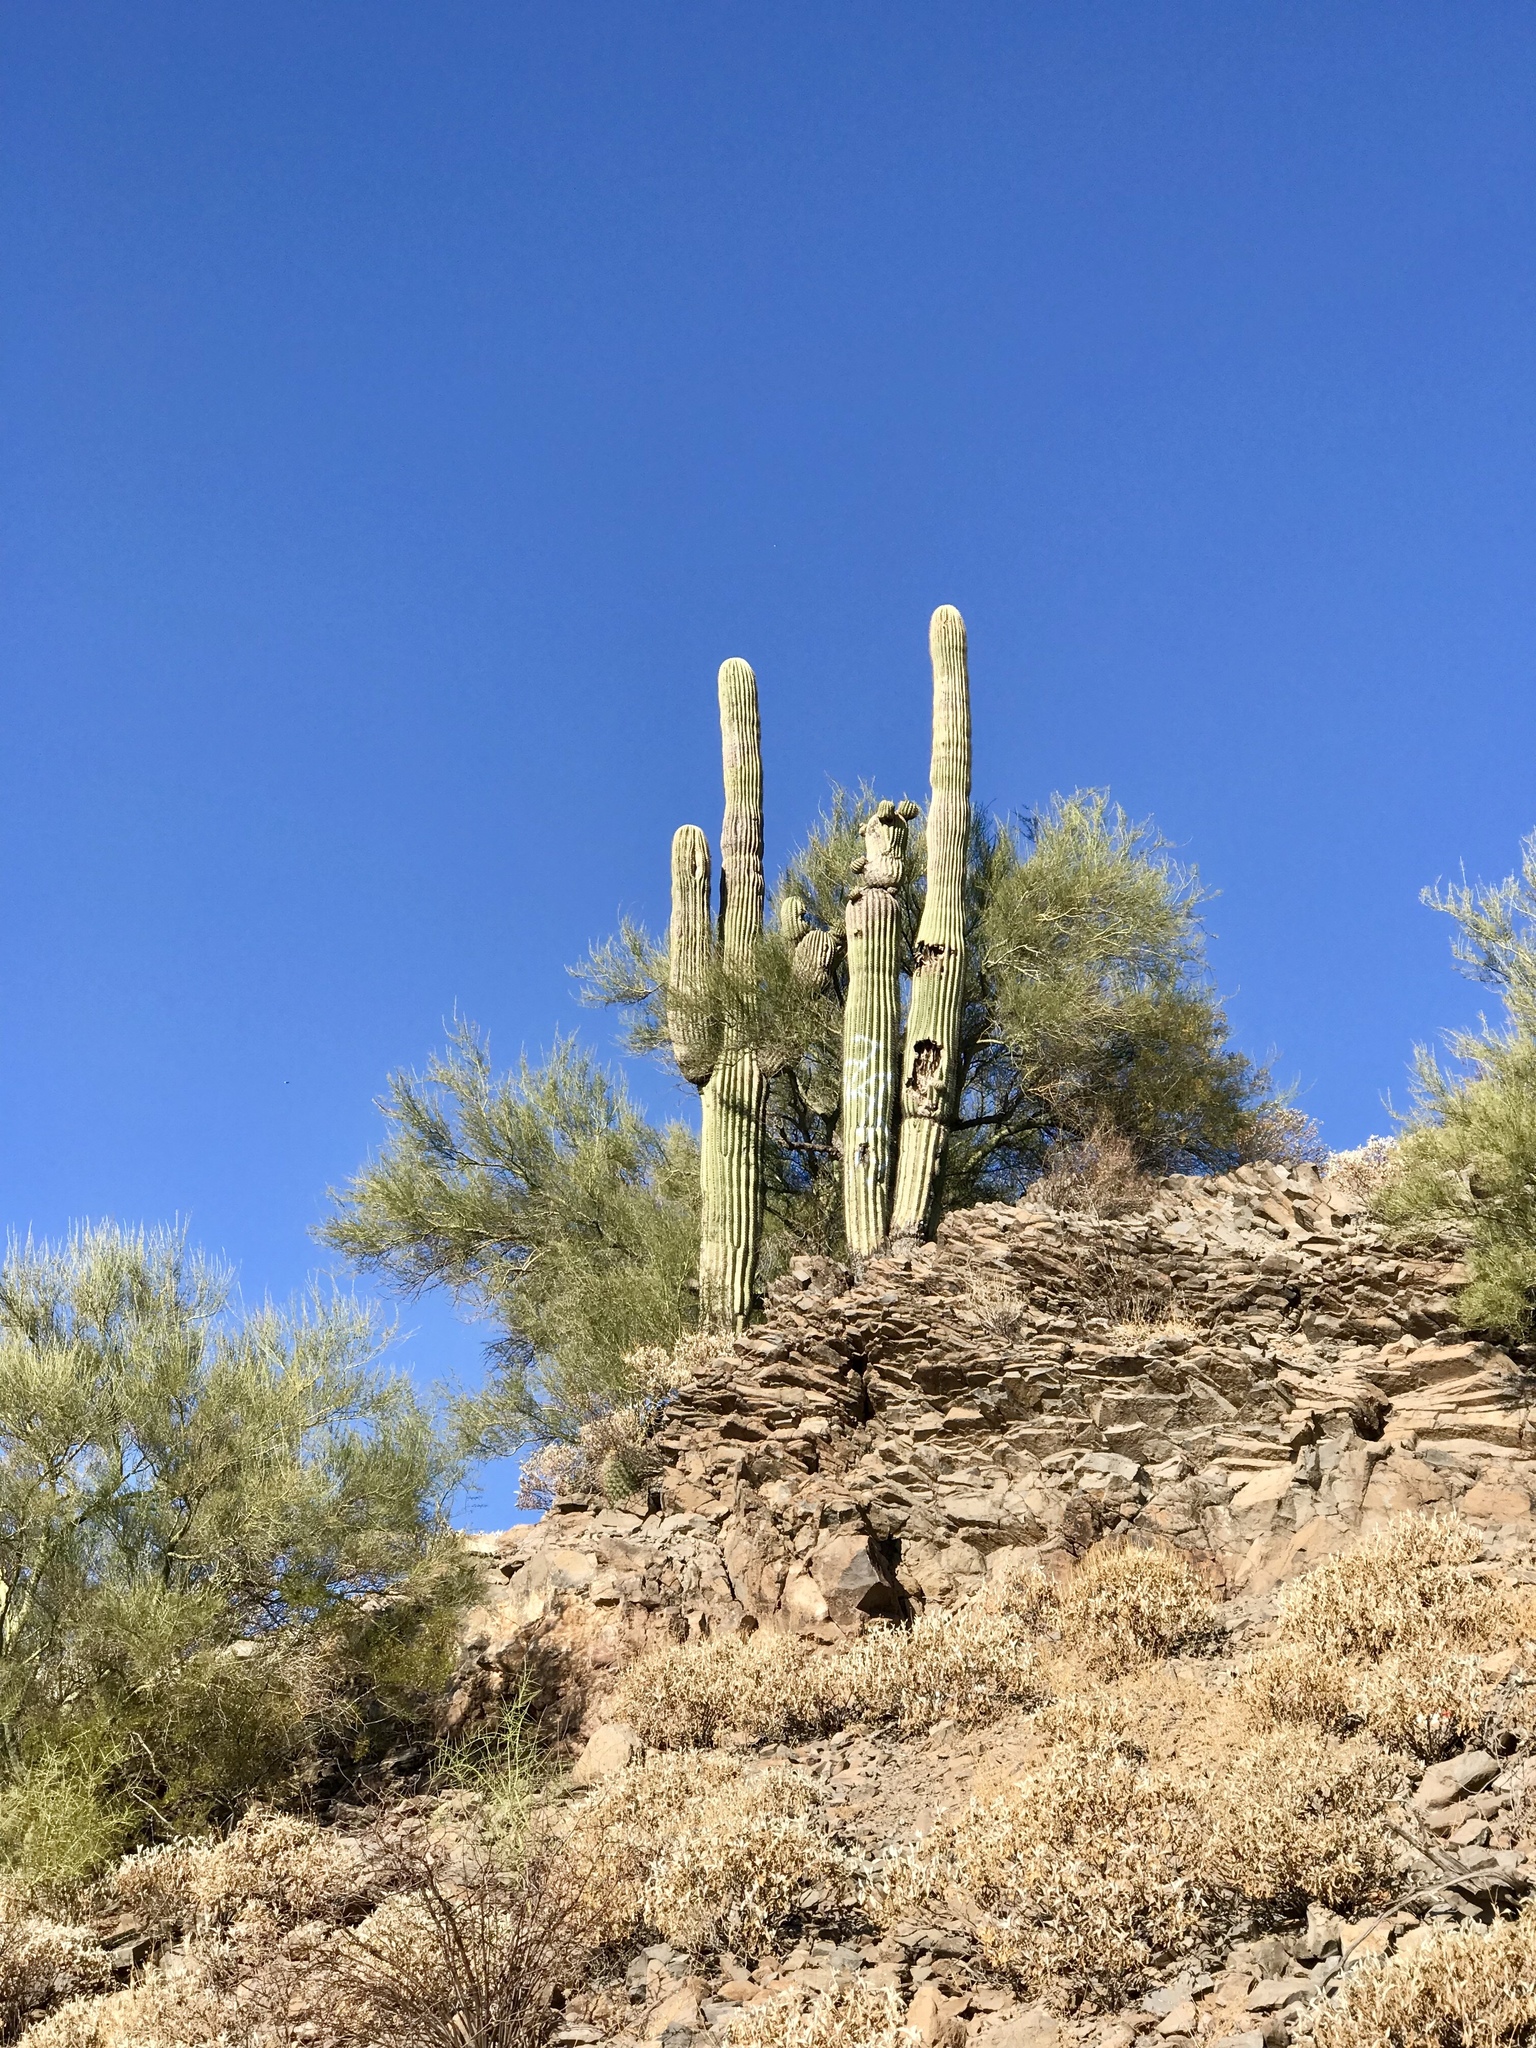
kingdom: Plantae
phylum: Tracheophyta
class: Magnoliopsida
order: Caryophyllales
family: Cactaceae
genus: Carnegiea
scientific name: Carnegiea gigantea
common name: Saguaro
